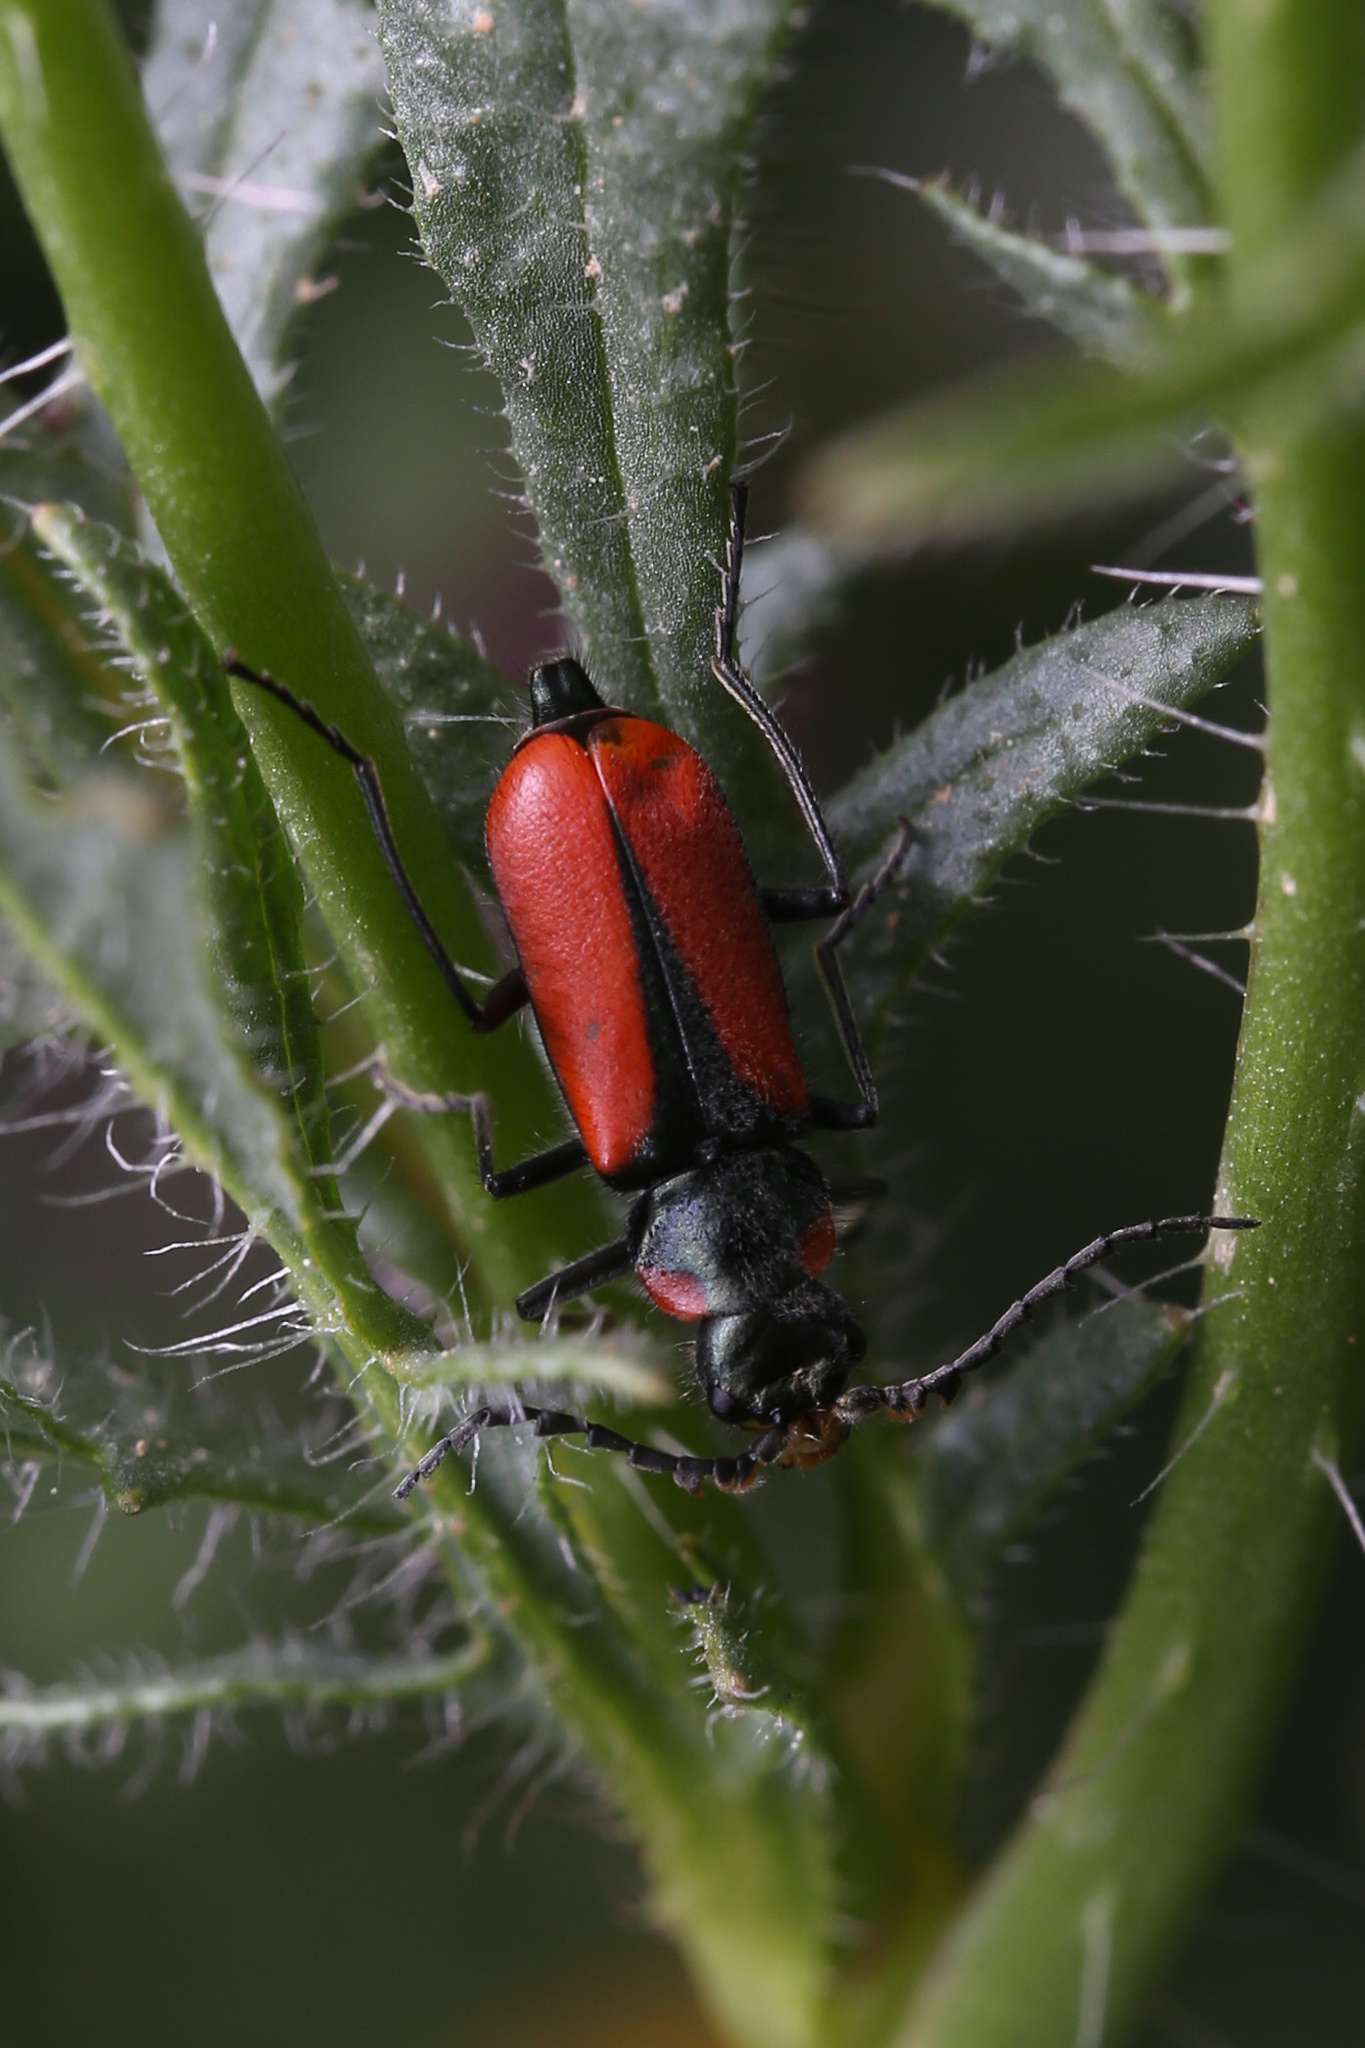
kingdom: Animalia
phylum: Arthropoda
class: Insecta
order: Coleoptera
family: Melyridae
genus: Malachius
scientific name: Malachius
